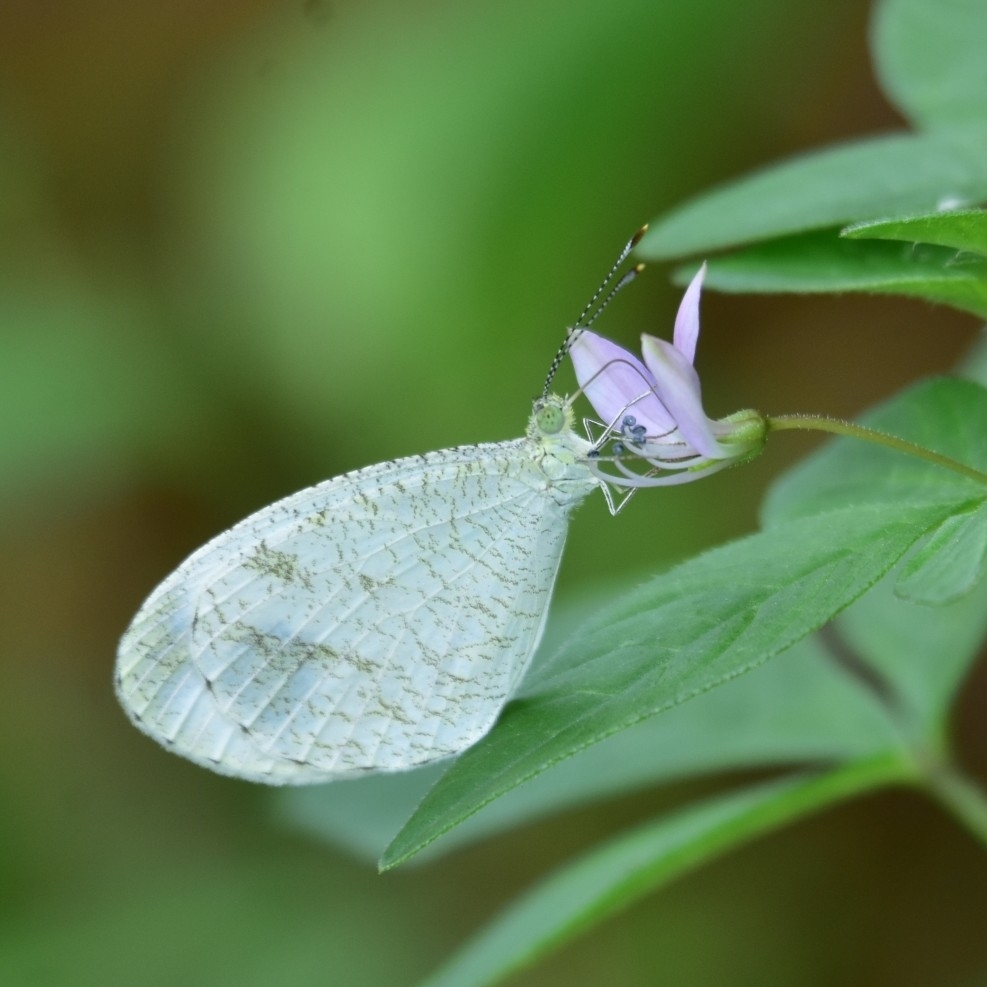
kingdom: Animalia
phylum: Arthropoda
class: Insecta
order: Lepidoptera
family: Pieridae
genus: Leptosia
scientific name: Leptosia nina
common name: Psyche
